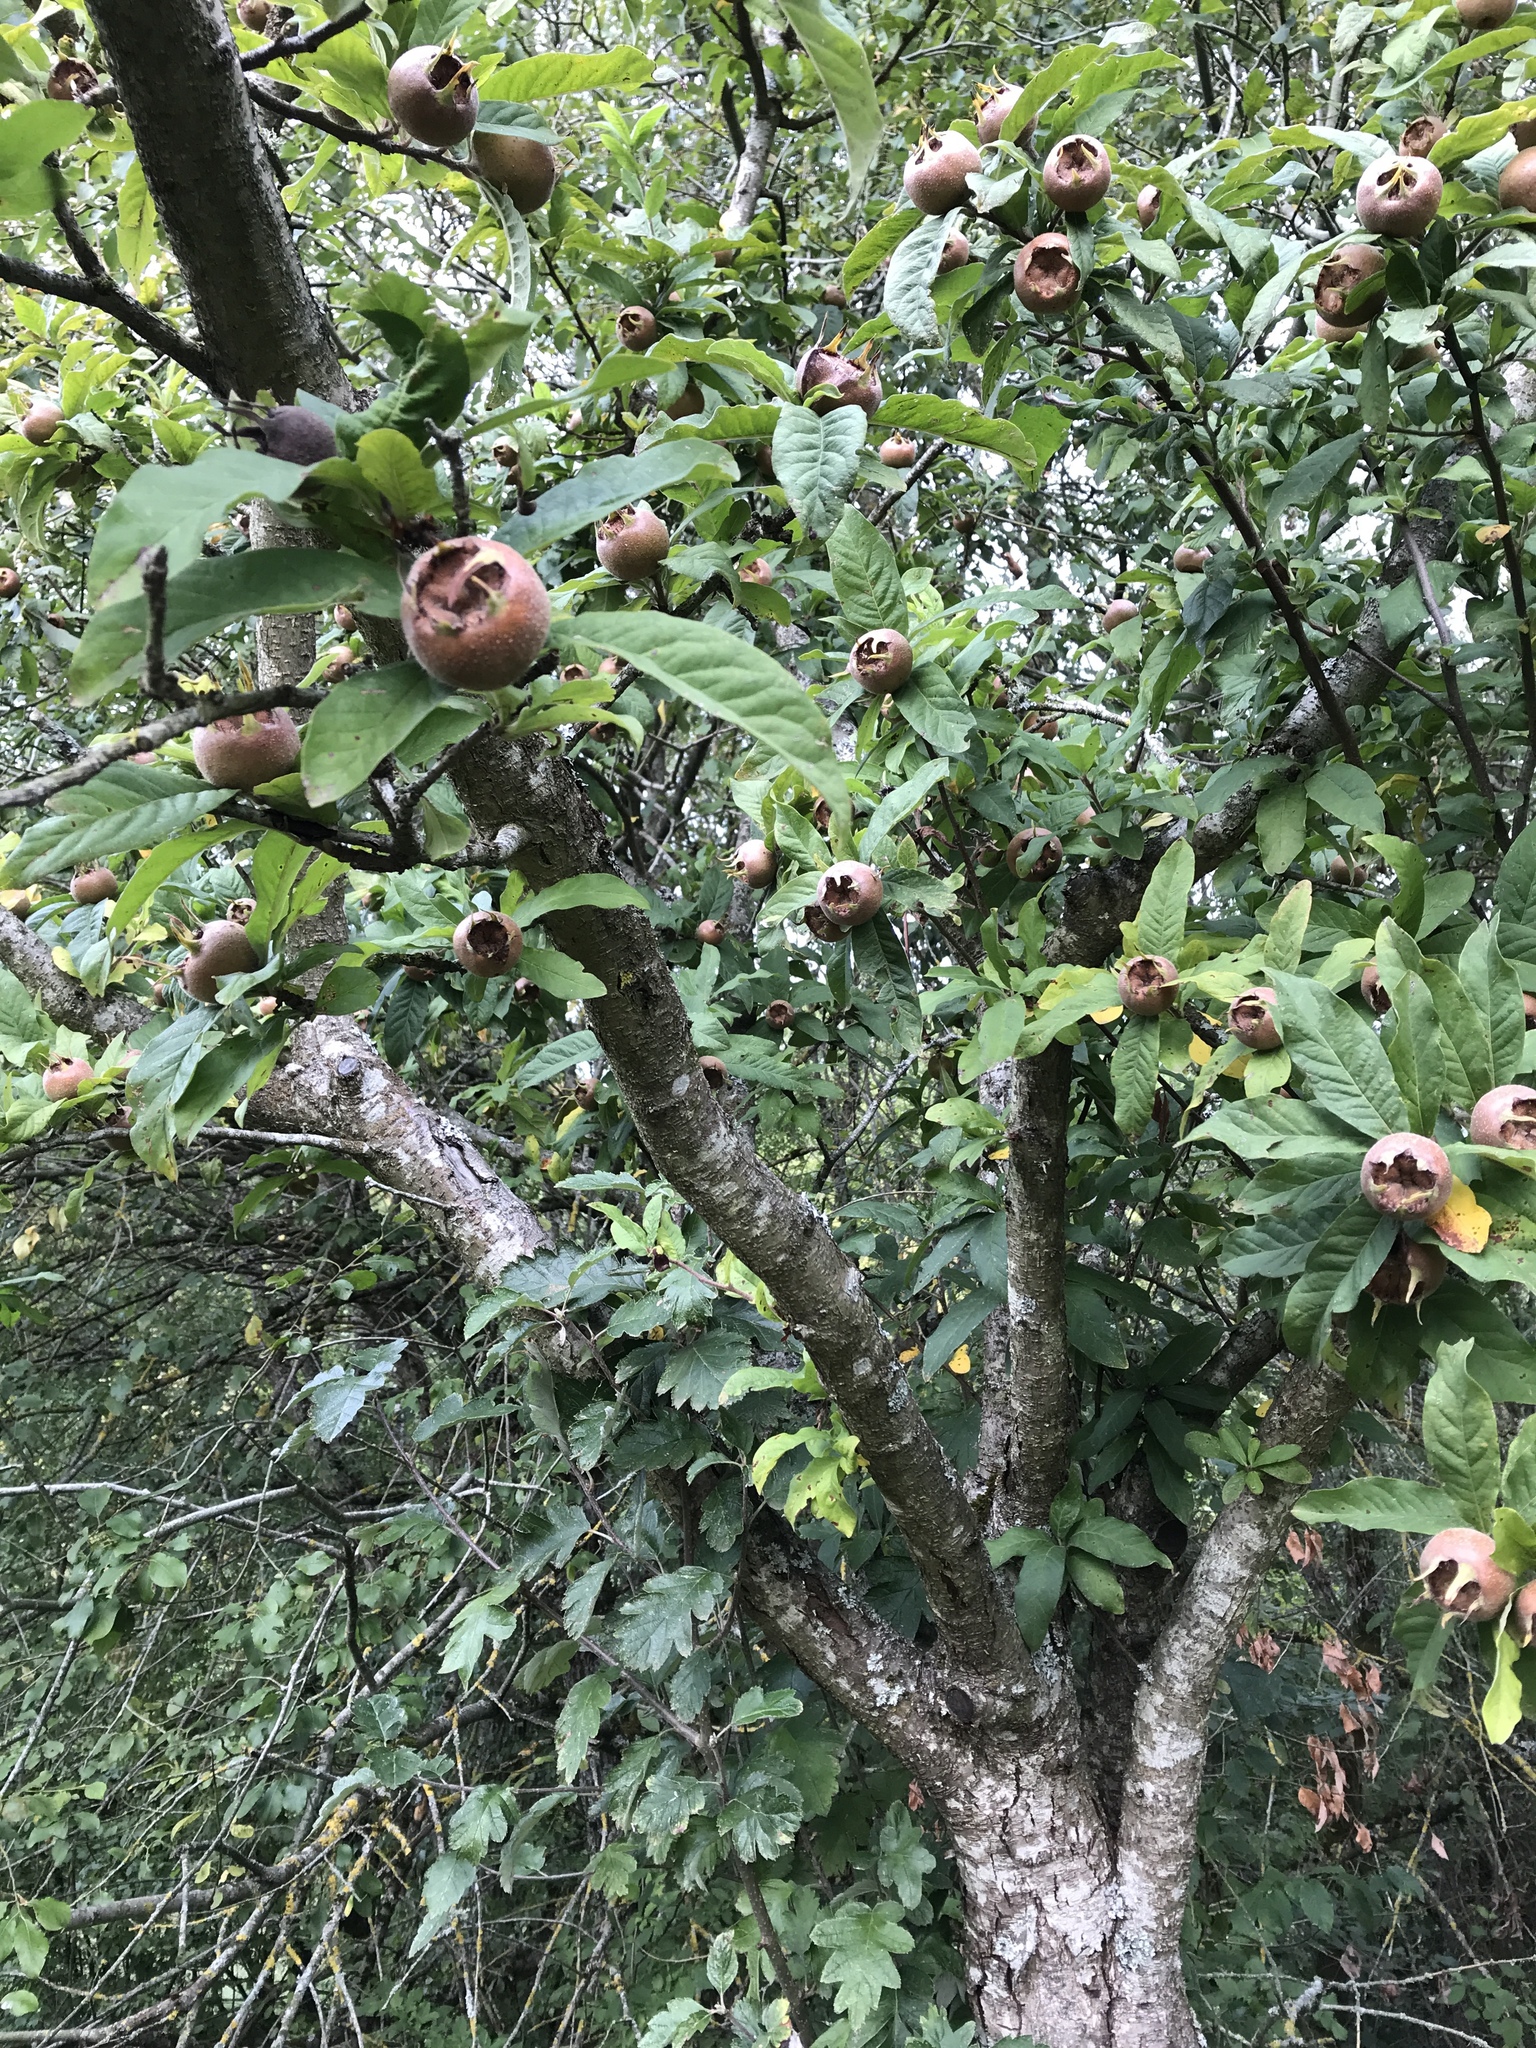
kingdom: Plantae
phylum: Tracheophyta
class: Magnoliopsida
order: Rosales
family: Rosaceae
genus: Mespilus
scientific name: Mespilus germanica
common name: Medlar
